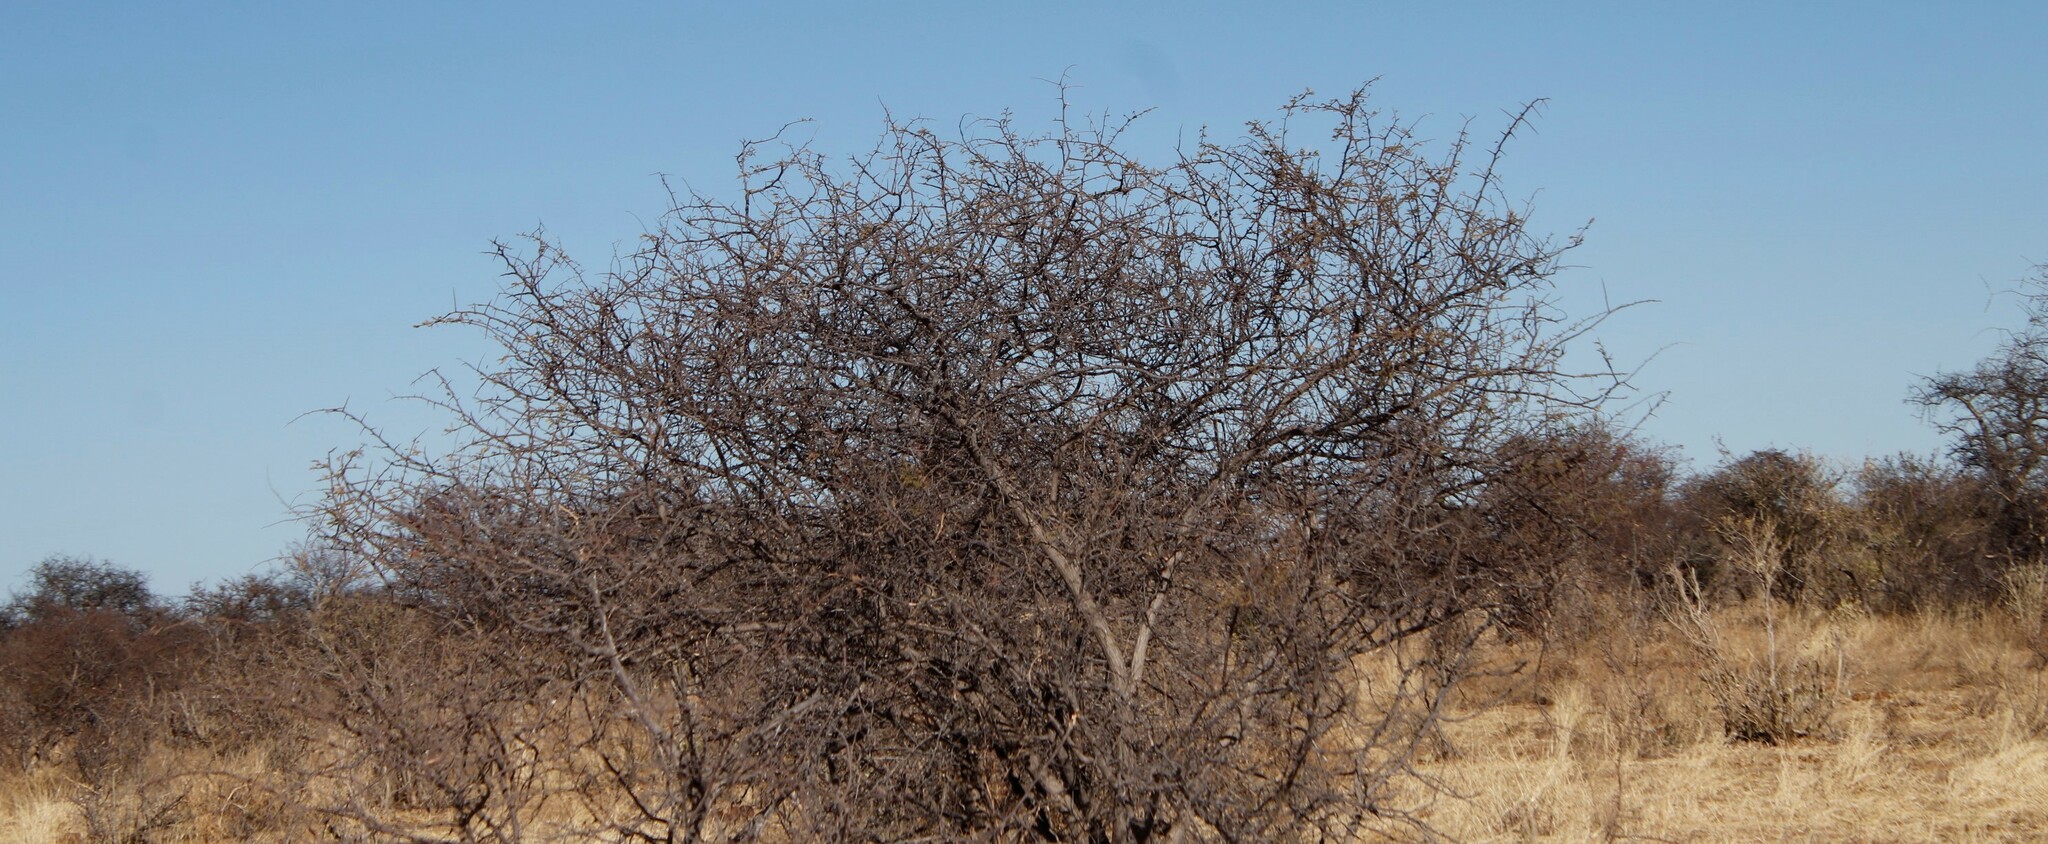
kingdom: Plantae
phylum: Tracheophyta
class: Magnoliopsida
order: Fabales
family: Fabaceae
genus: Dichrostachys
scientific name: Dichrostachys cinerea
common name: Sicklebush
